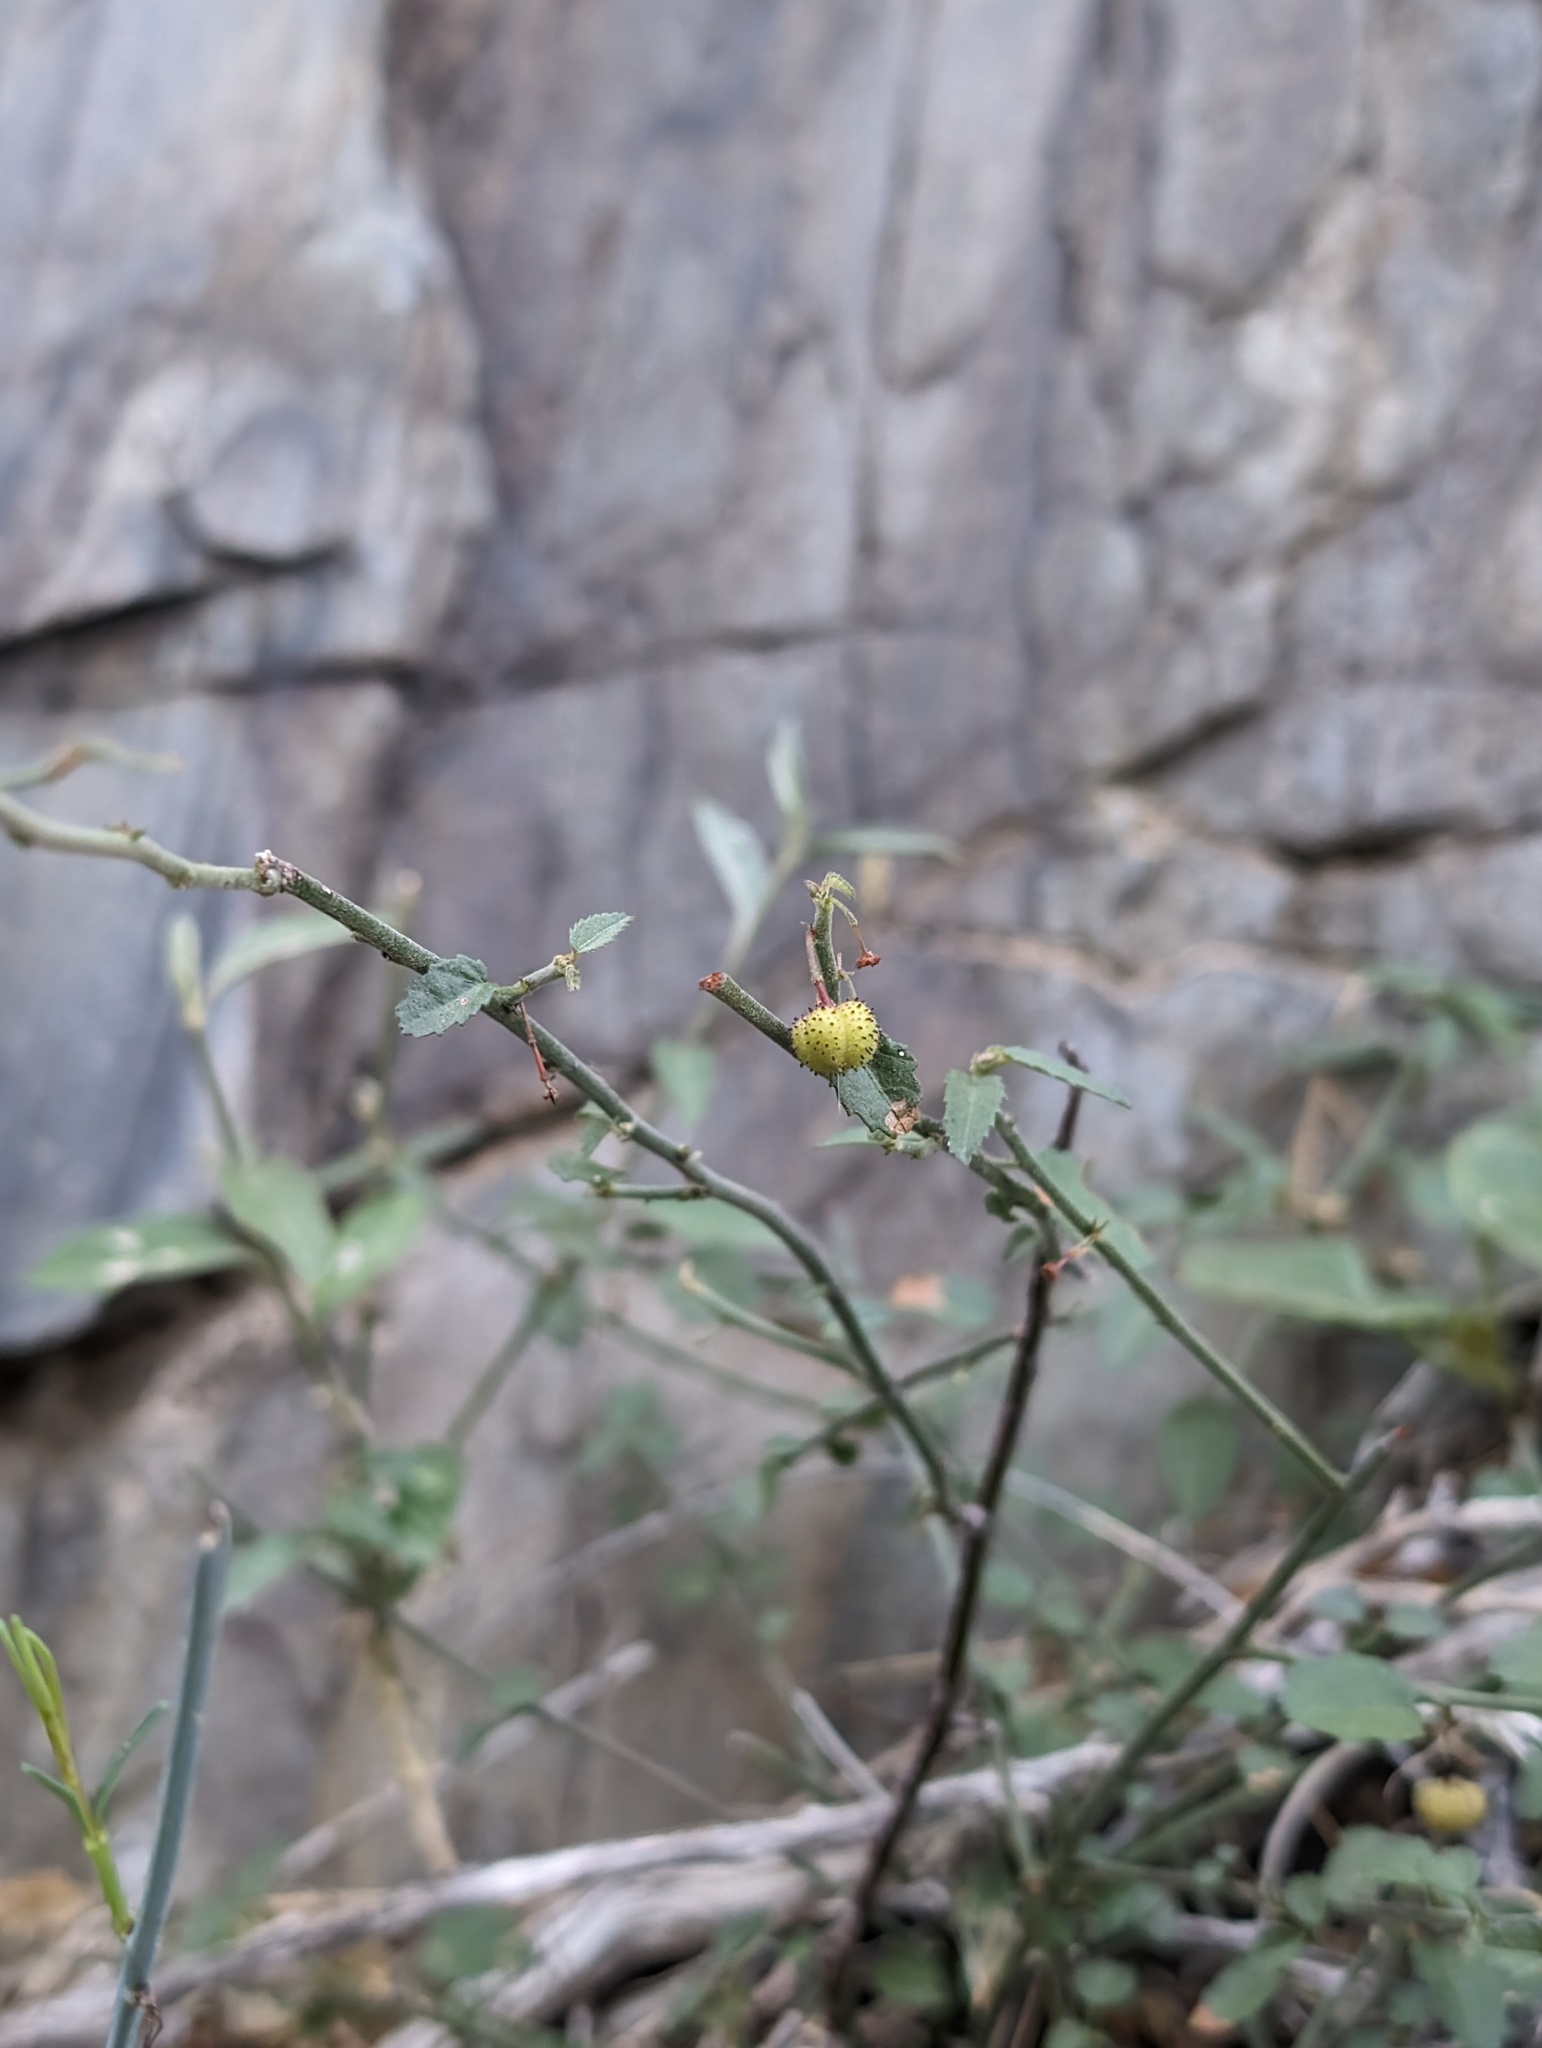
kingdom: Plantae
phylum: Tracheophyta
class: Magnoliopsida
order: Malvales
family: Malvaceae
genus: Ayenia
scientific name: Ayenia compacta
